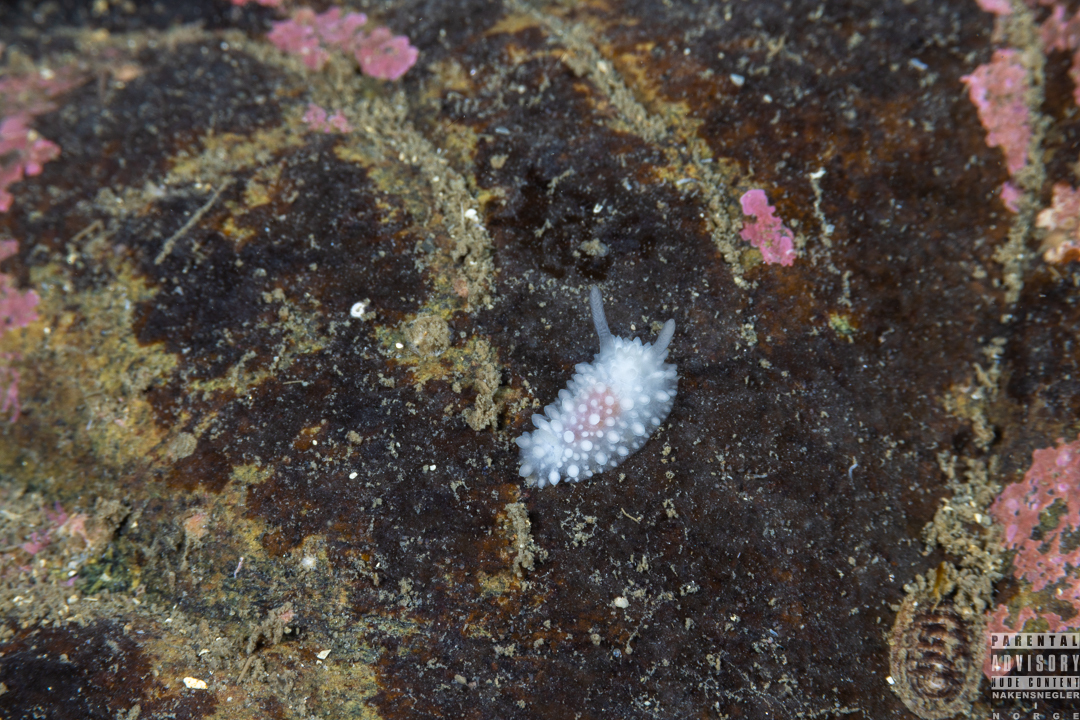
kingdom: Animalia
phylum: Mollusca
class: Gastropoda
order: Nudibranchia
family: Onchidorididae
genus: Adalaria
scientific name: Adalaria proxima
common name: False doris
